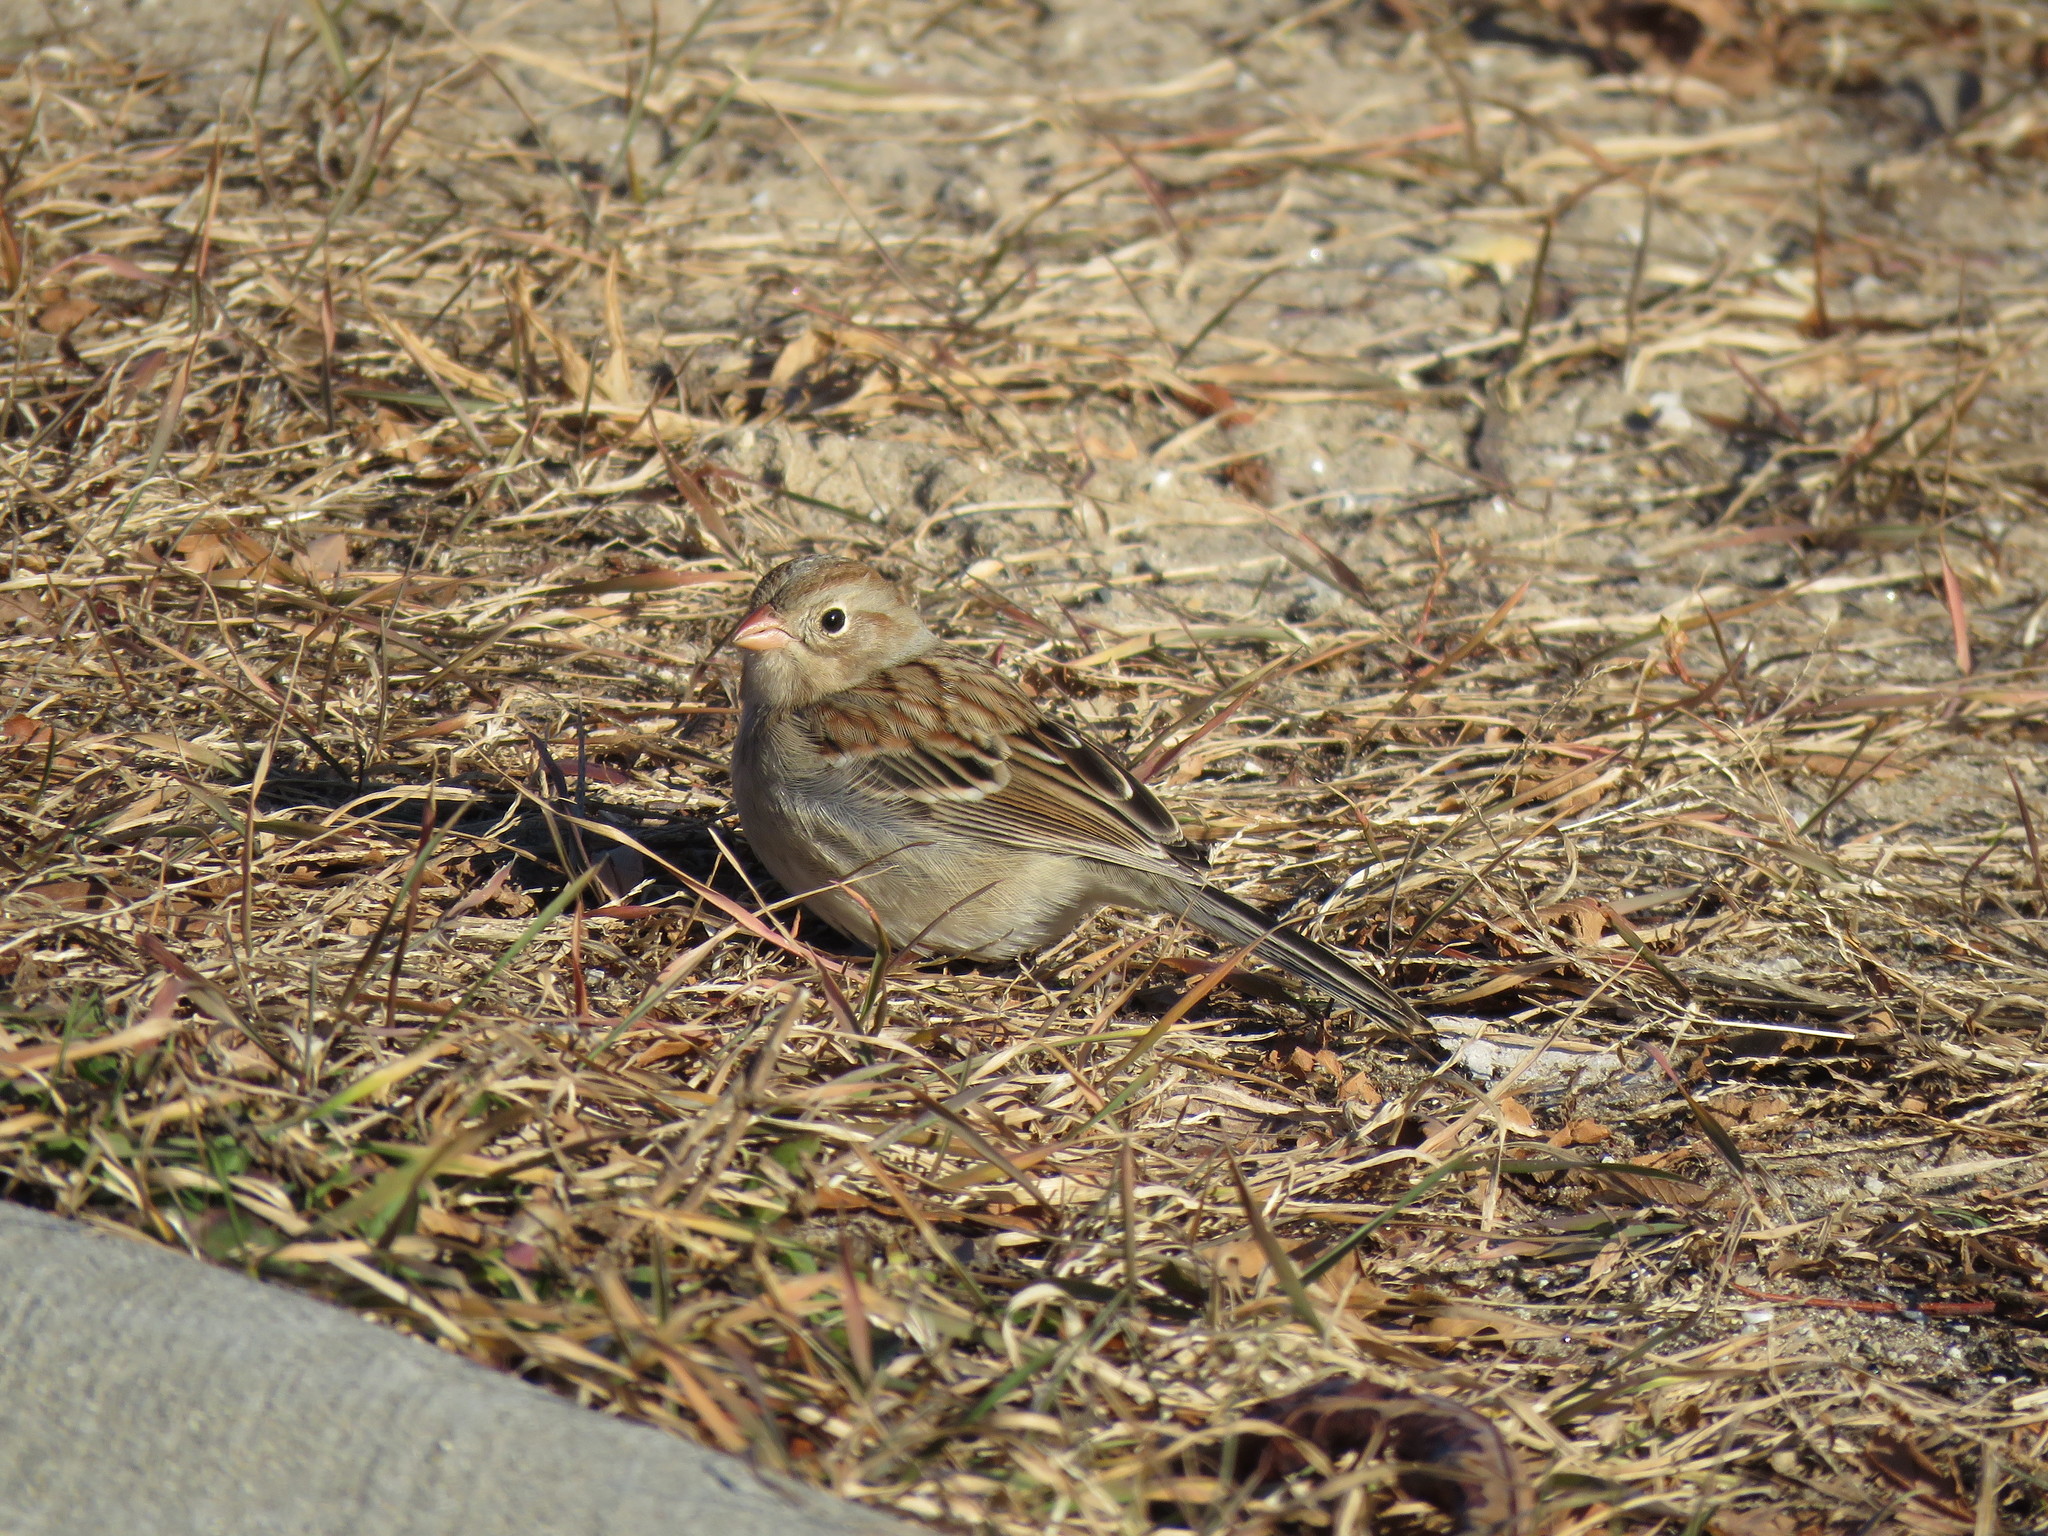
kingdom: Animalia
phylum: Chordata
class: Aves
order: Passeriformes
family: Passerellidae
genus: Spizella
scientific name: Spizella pusilla
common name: Field sparrow
